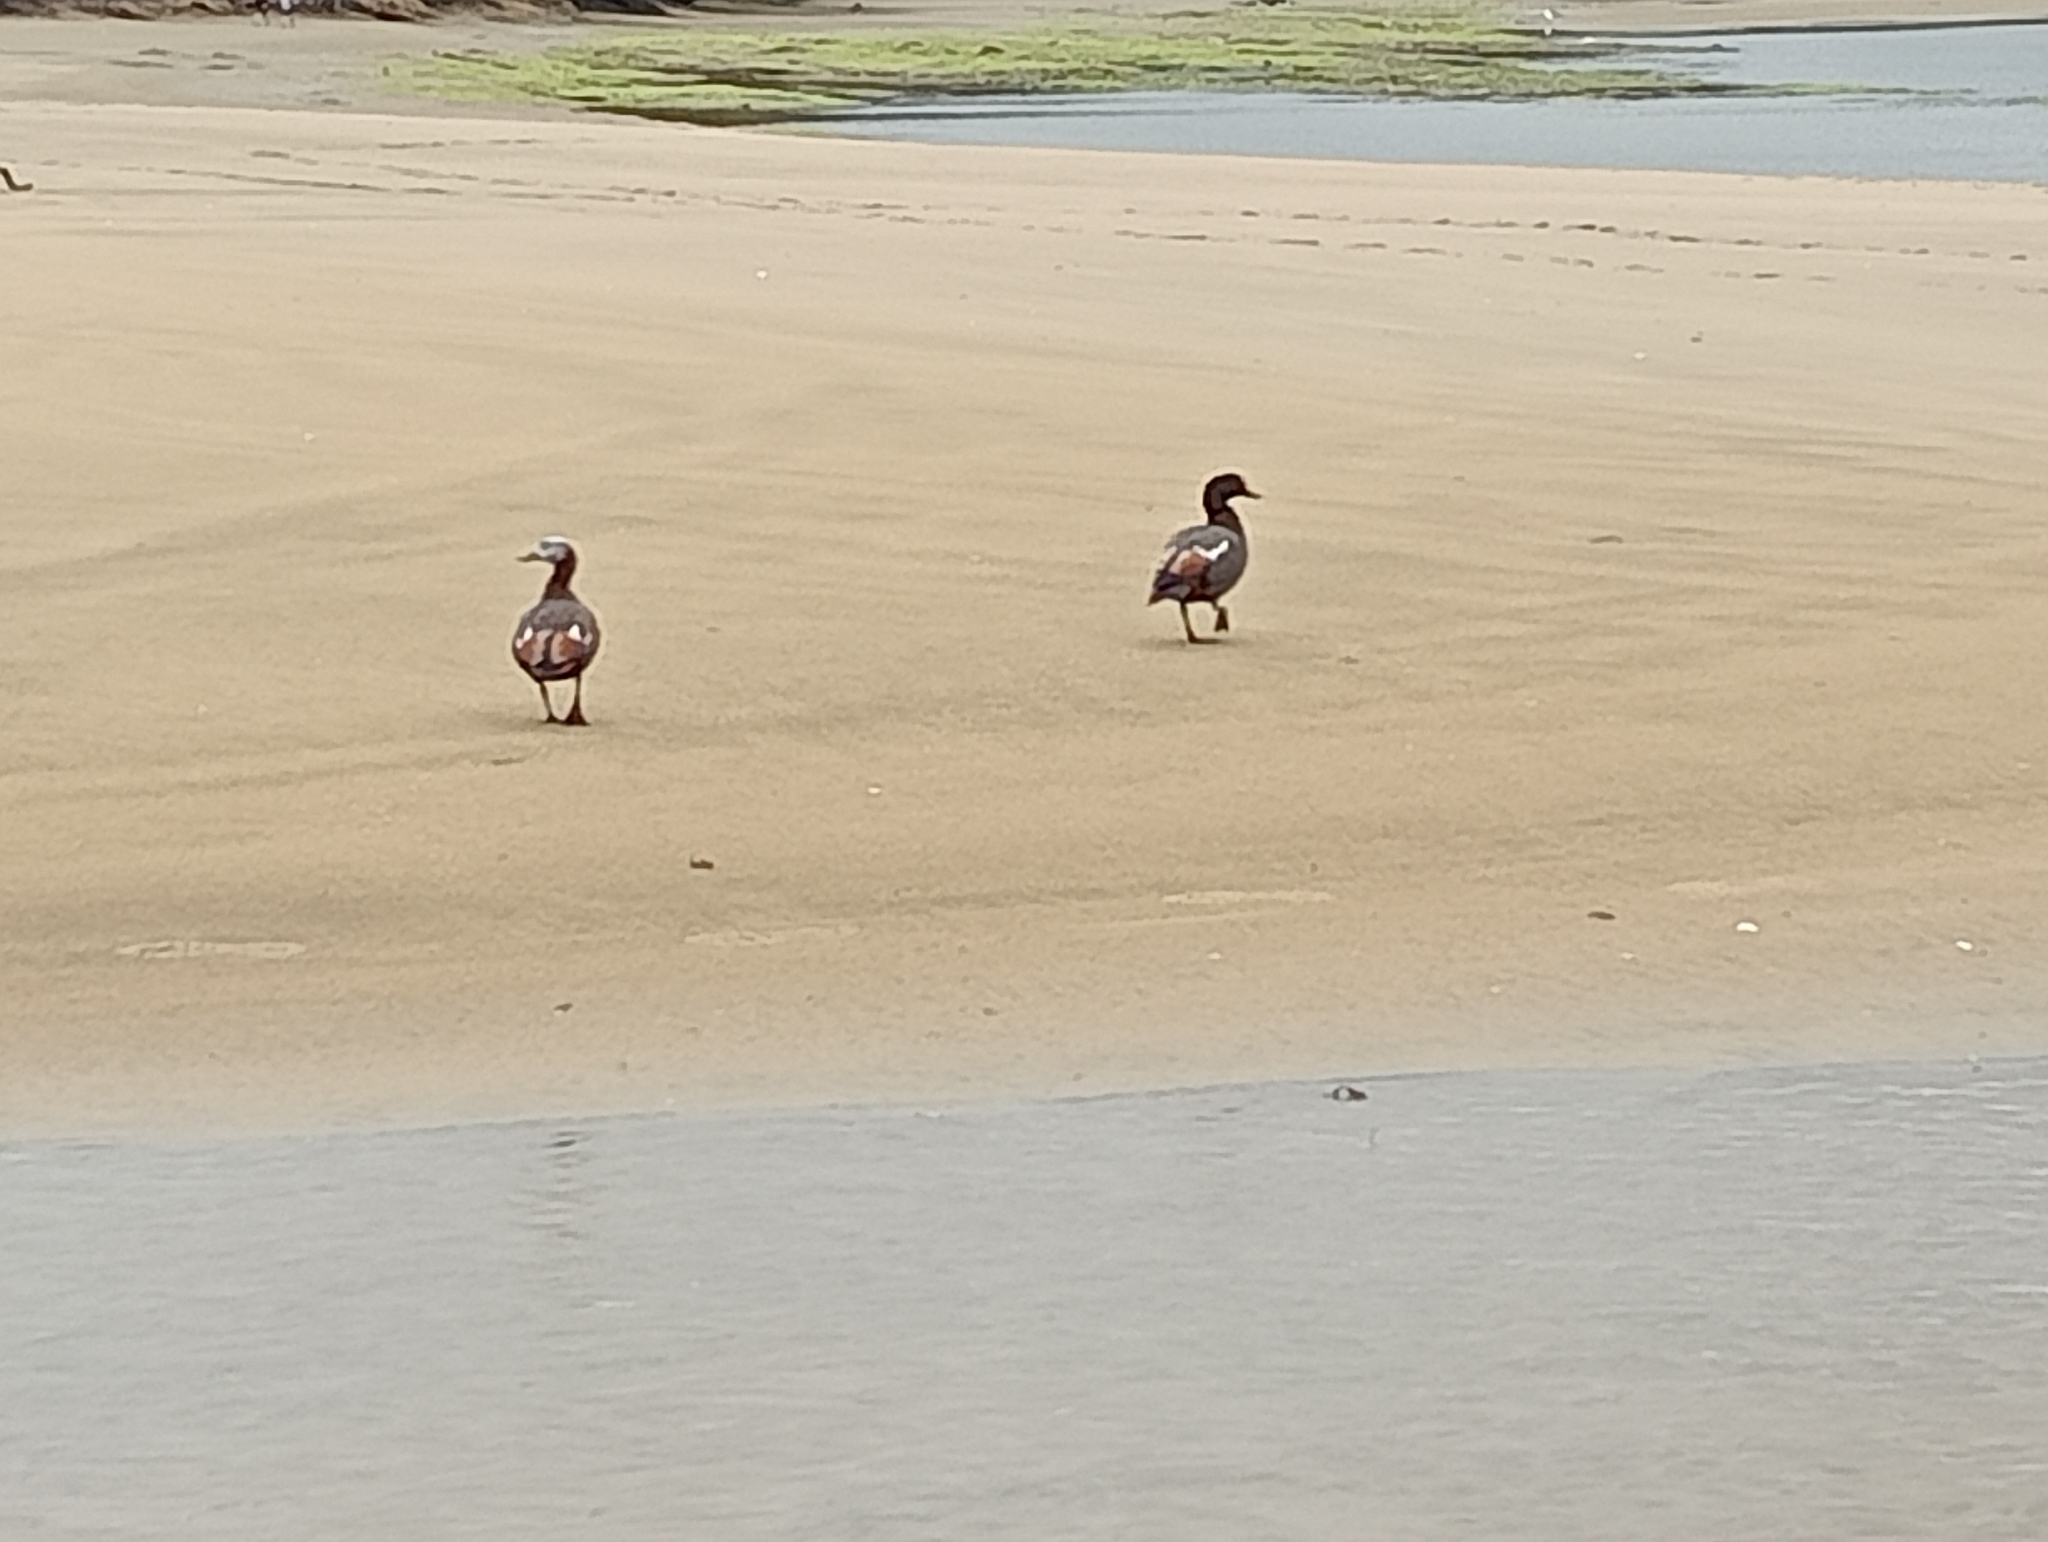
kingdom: Animalia
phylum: Chordata
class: Aves
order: Anseriformes
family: Anatidae
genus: Tadorna
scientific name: Tadorna variegata
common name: Paradise shelduck
